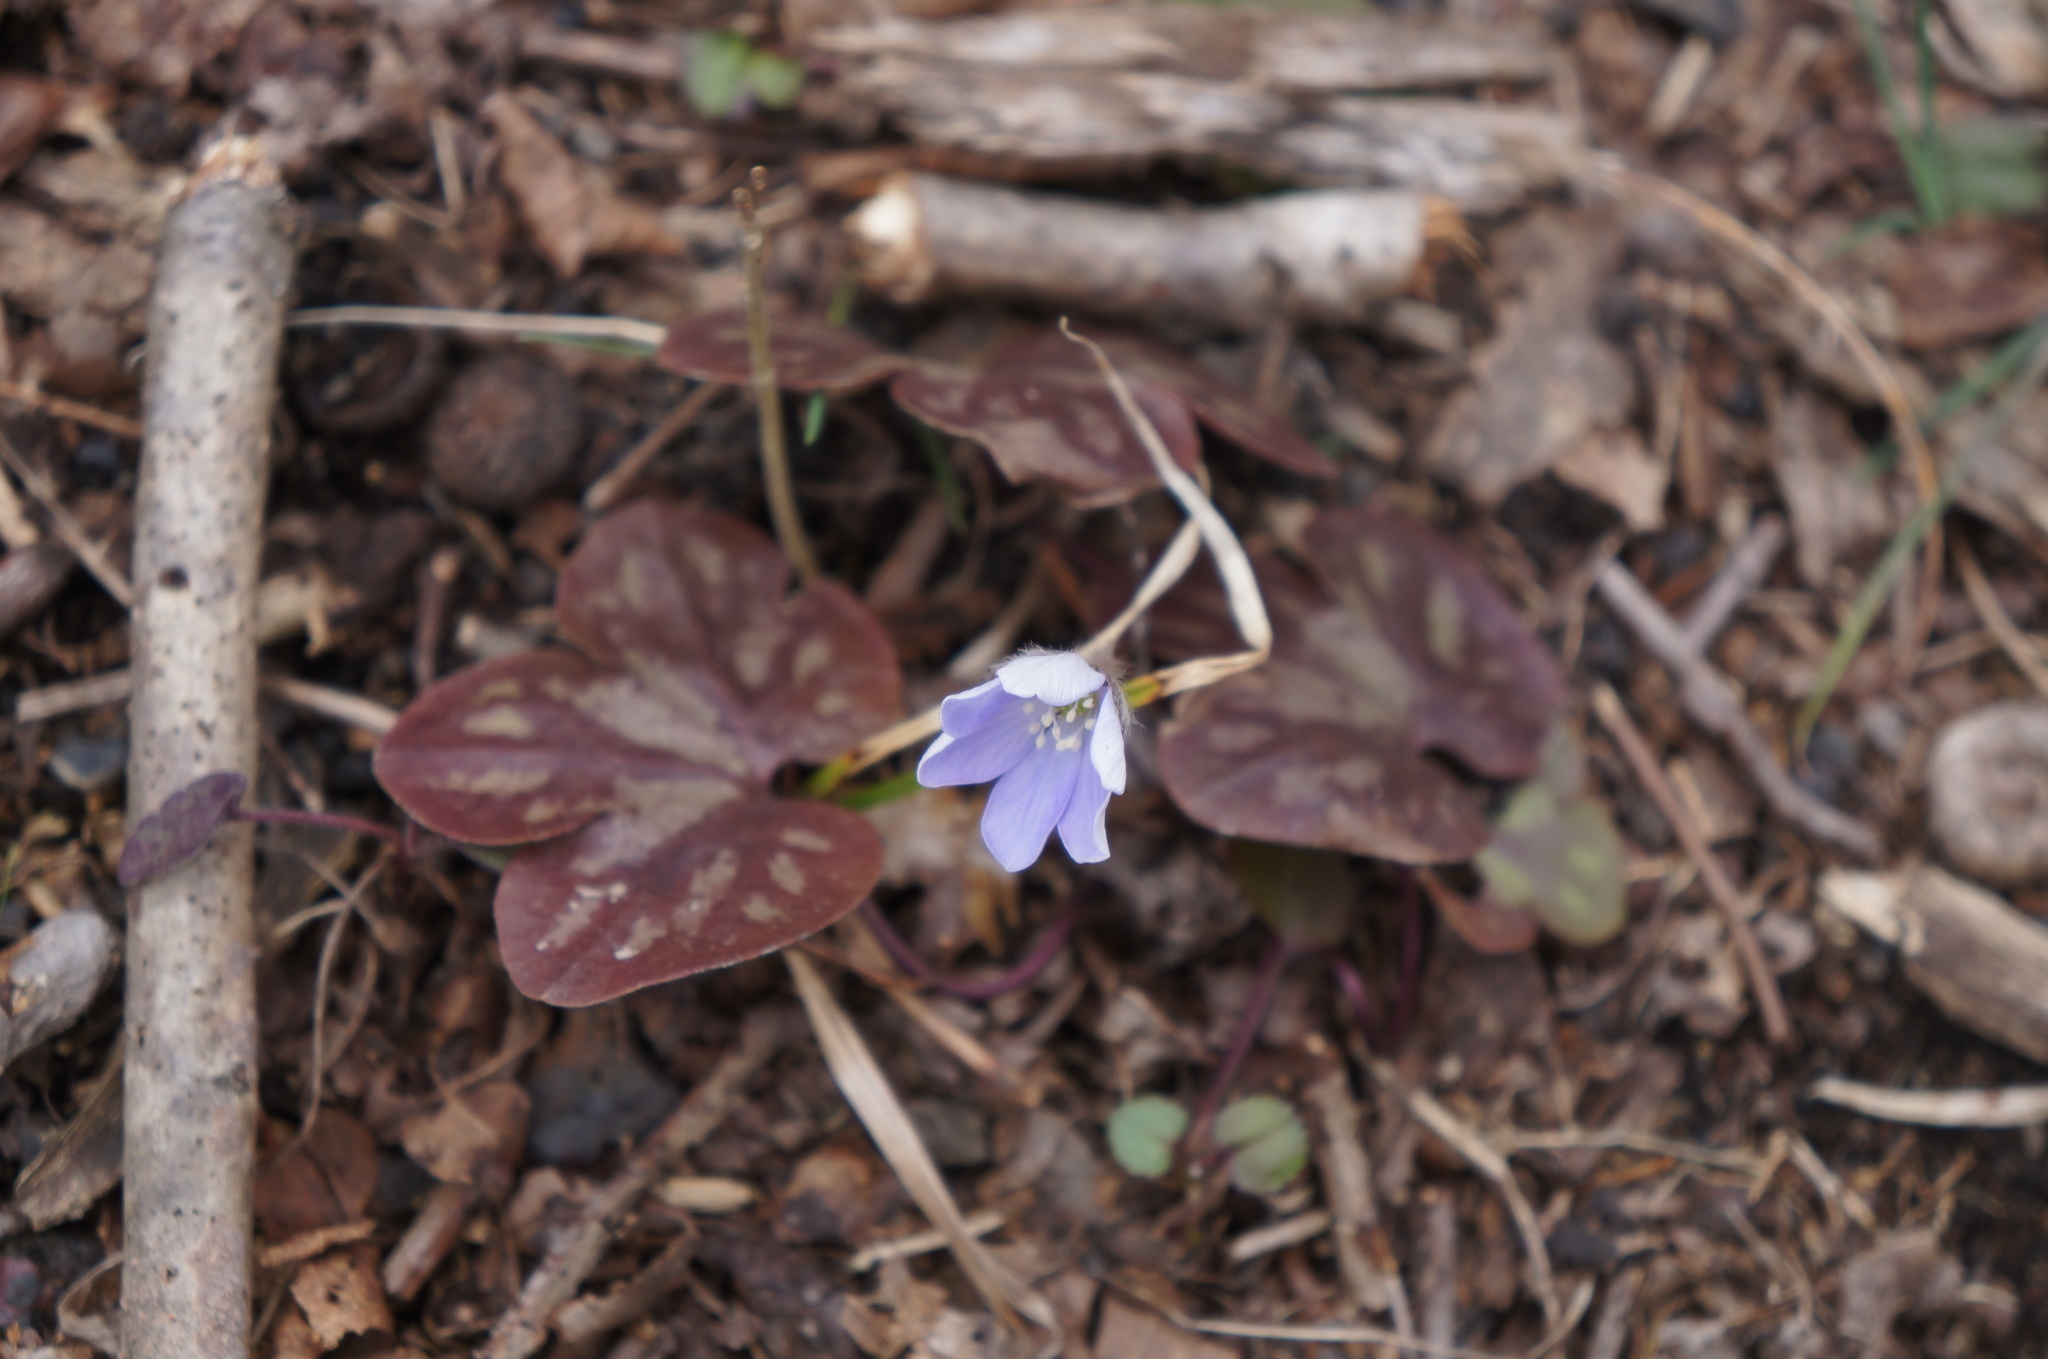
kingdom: Plantae
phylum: Tracheophyta
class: Magnoliopsida
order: Ranunculales
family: Ranunculaceae
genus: Hepatica
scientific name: Hepatica americana
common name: American hepatica
